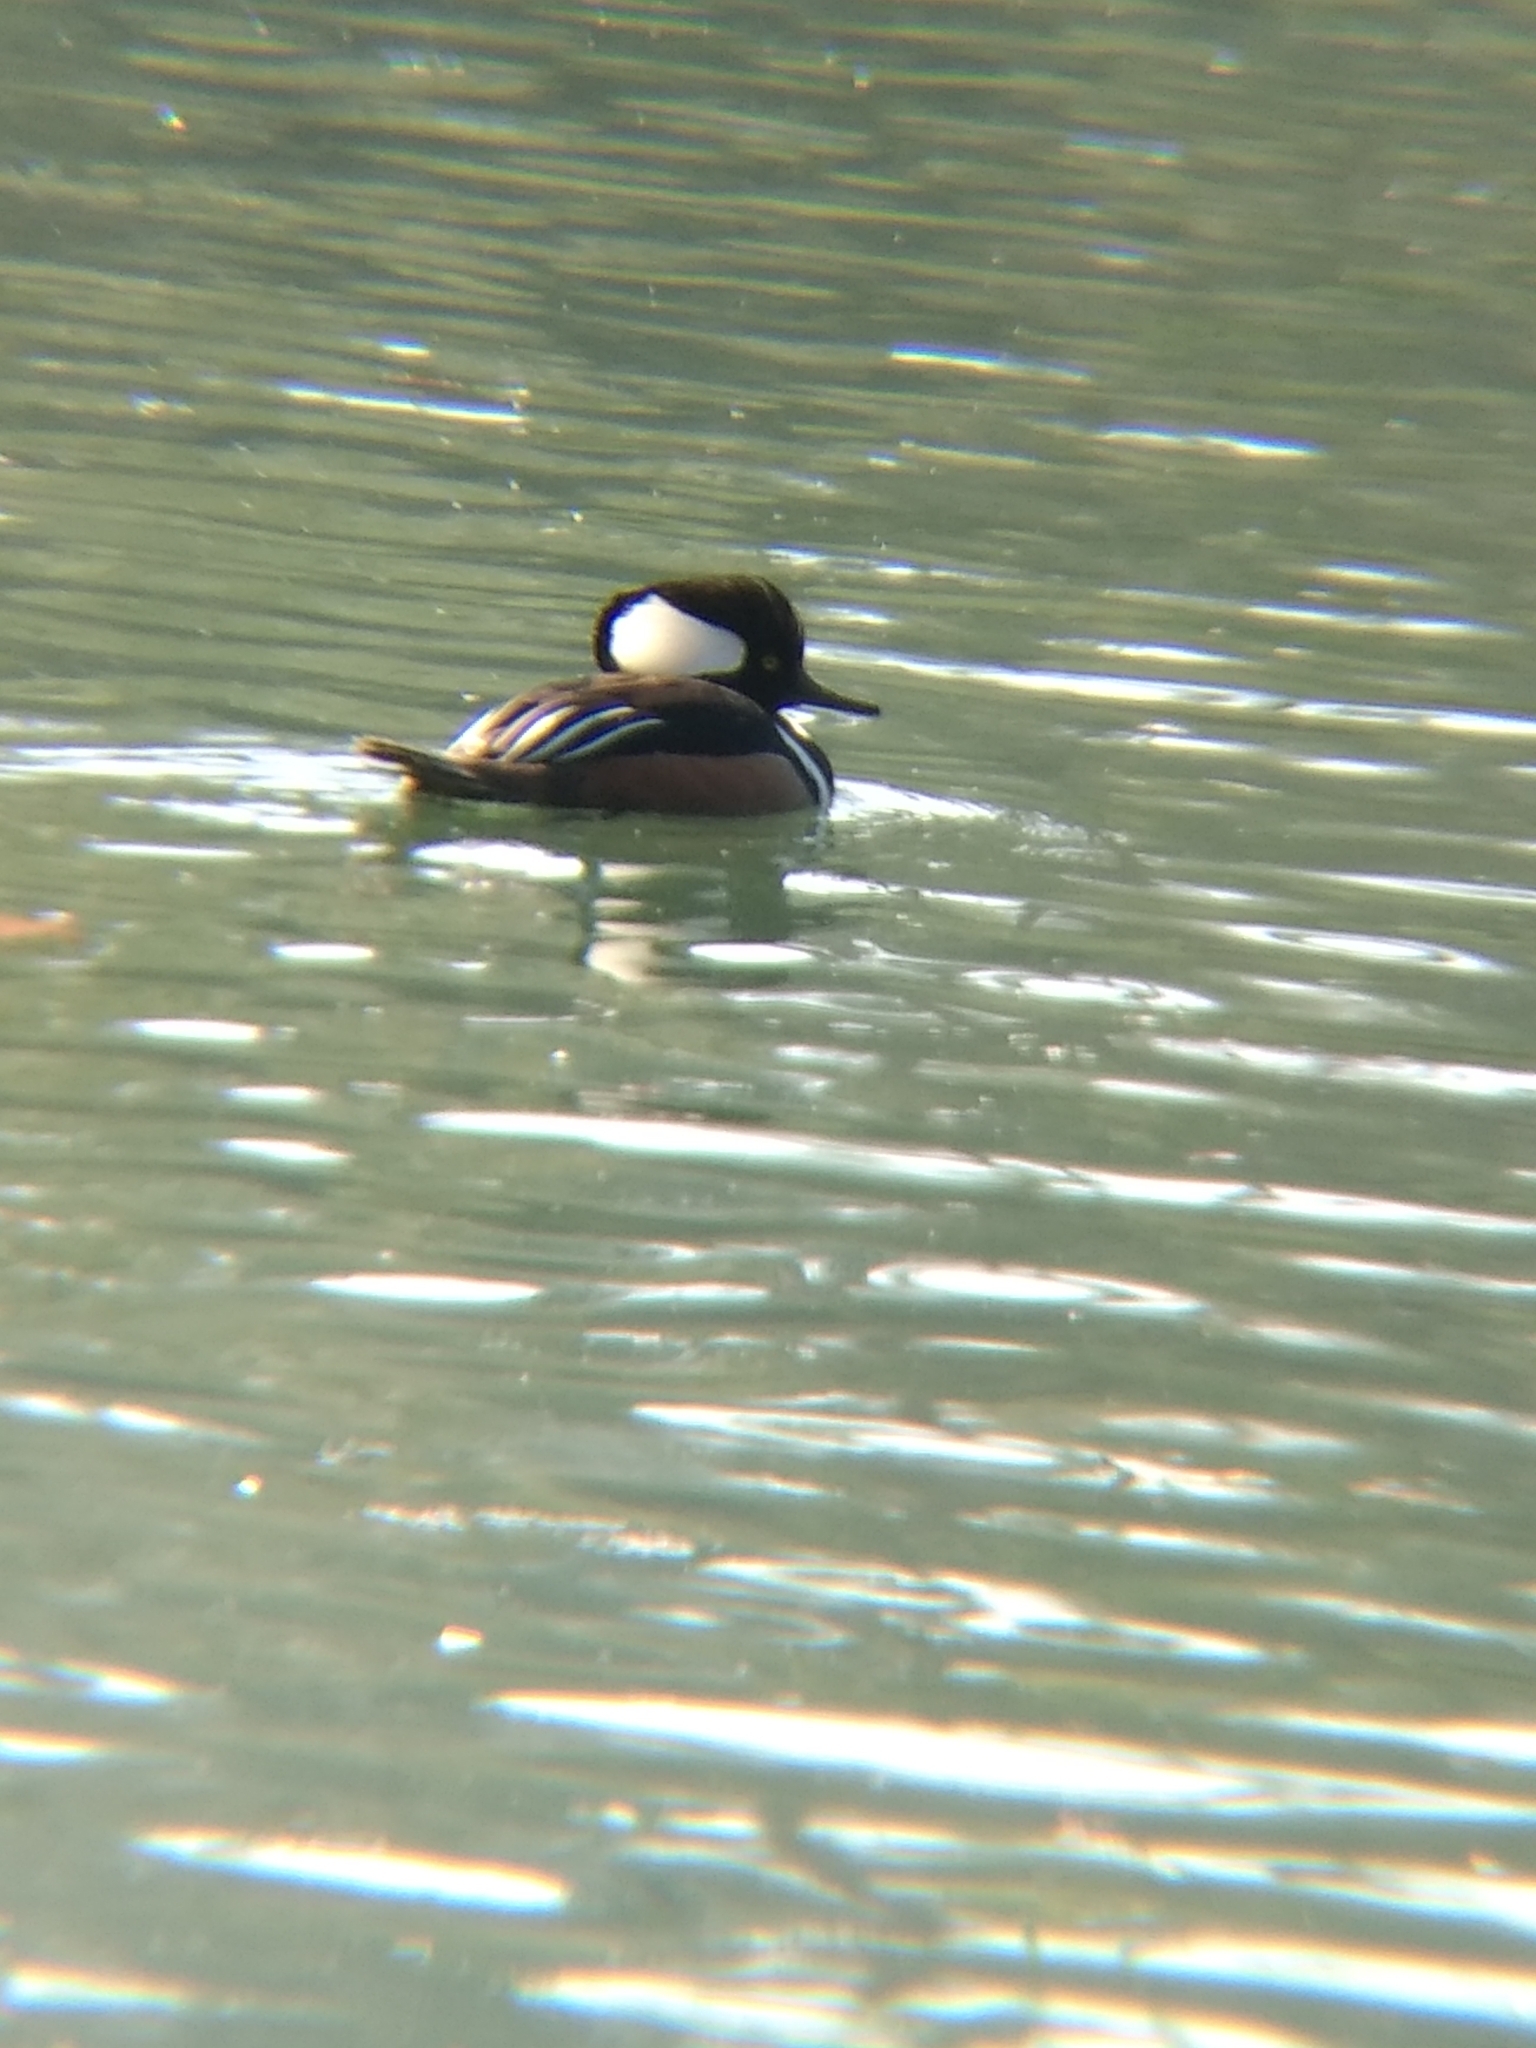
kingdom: Animalia
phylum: Chordata
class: Aves
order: Anseriformes
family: Anatidae
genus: Lophodytes
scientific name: Lophodytes cucullatus
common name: Hooded merganser
